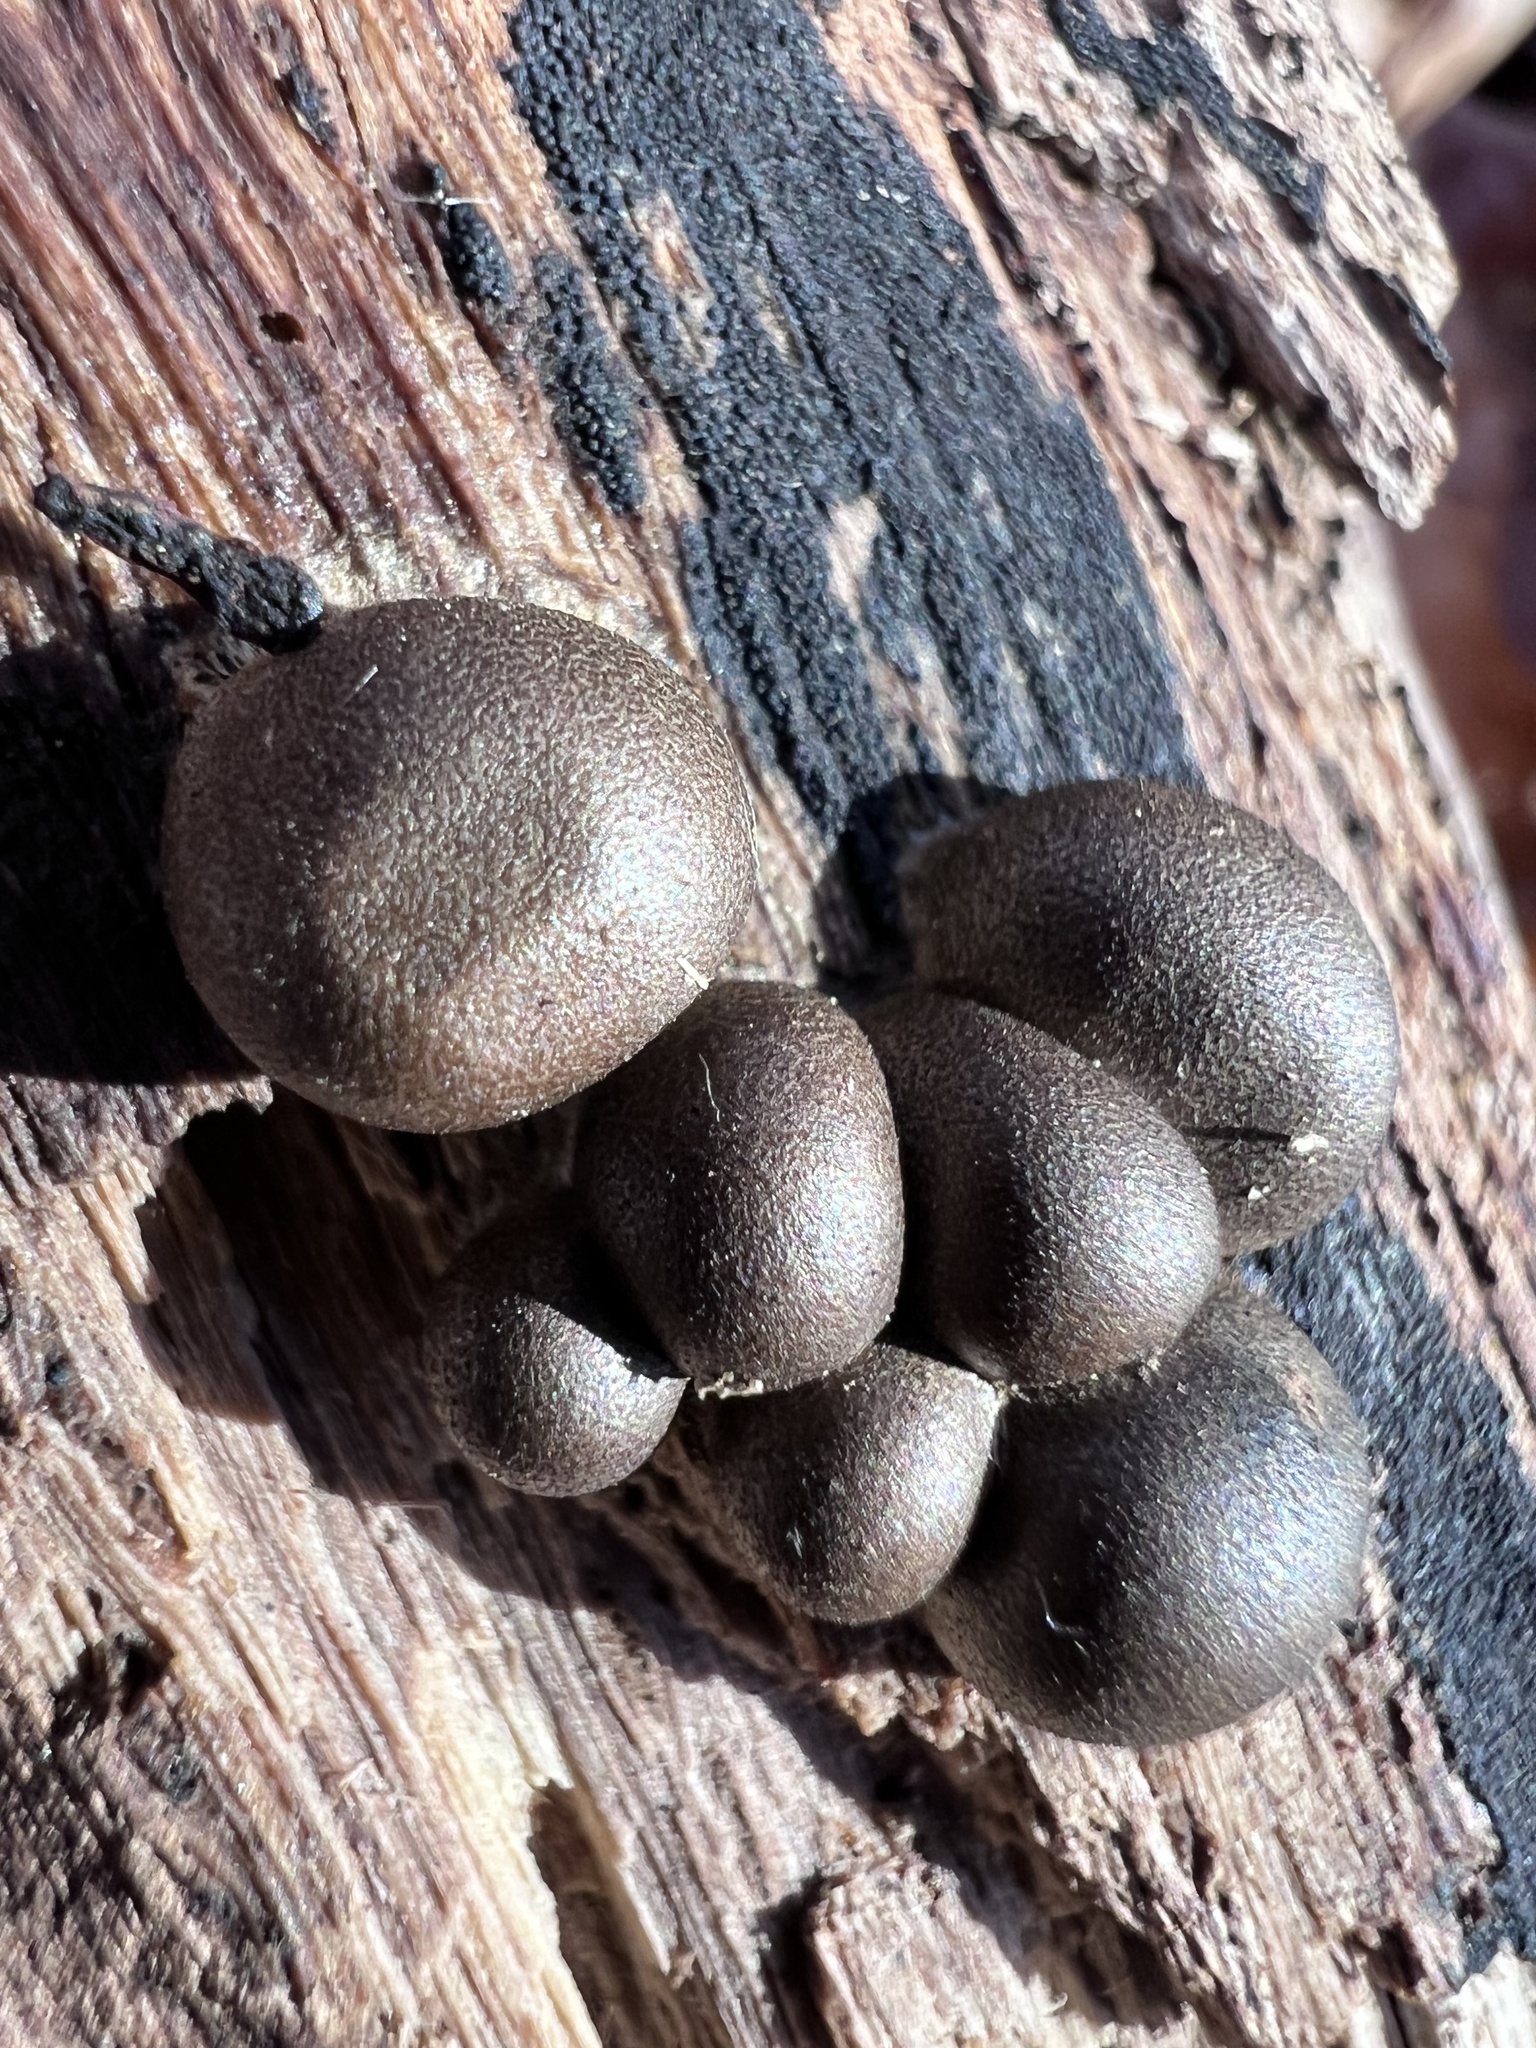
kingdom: Protozoa
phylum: Mycetozoa
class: Myxomycetes
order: Cribrariales
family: Tubiferaceae
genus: Lycogala
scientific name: Lycogala epidendrum
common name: Wolf's milk
